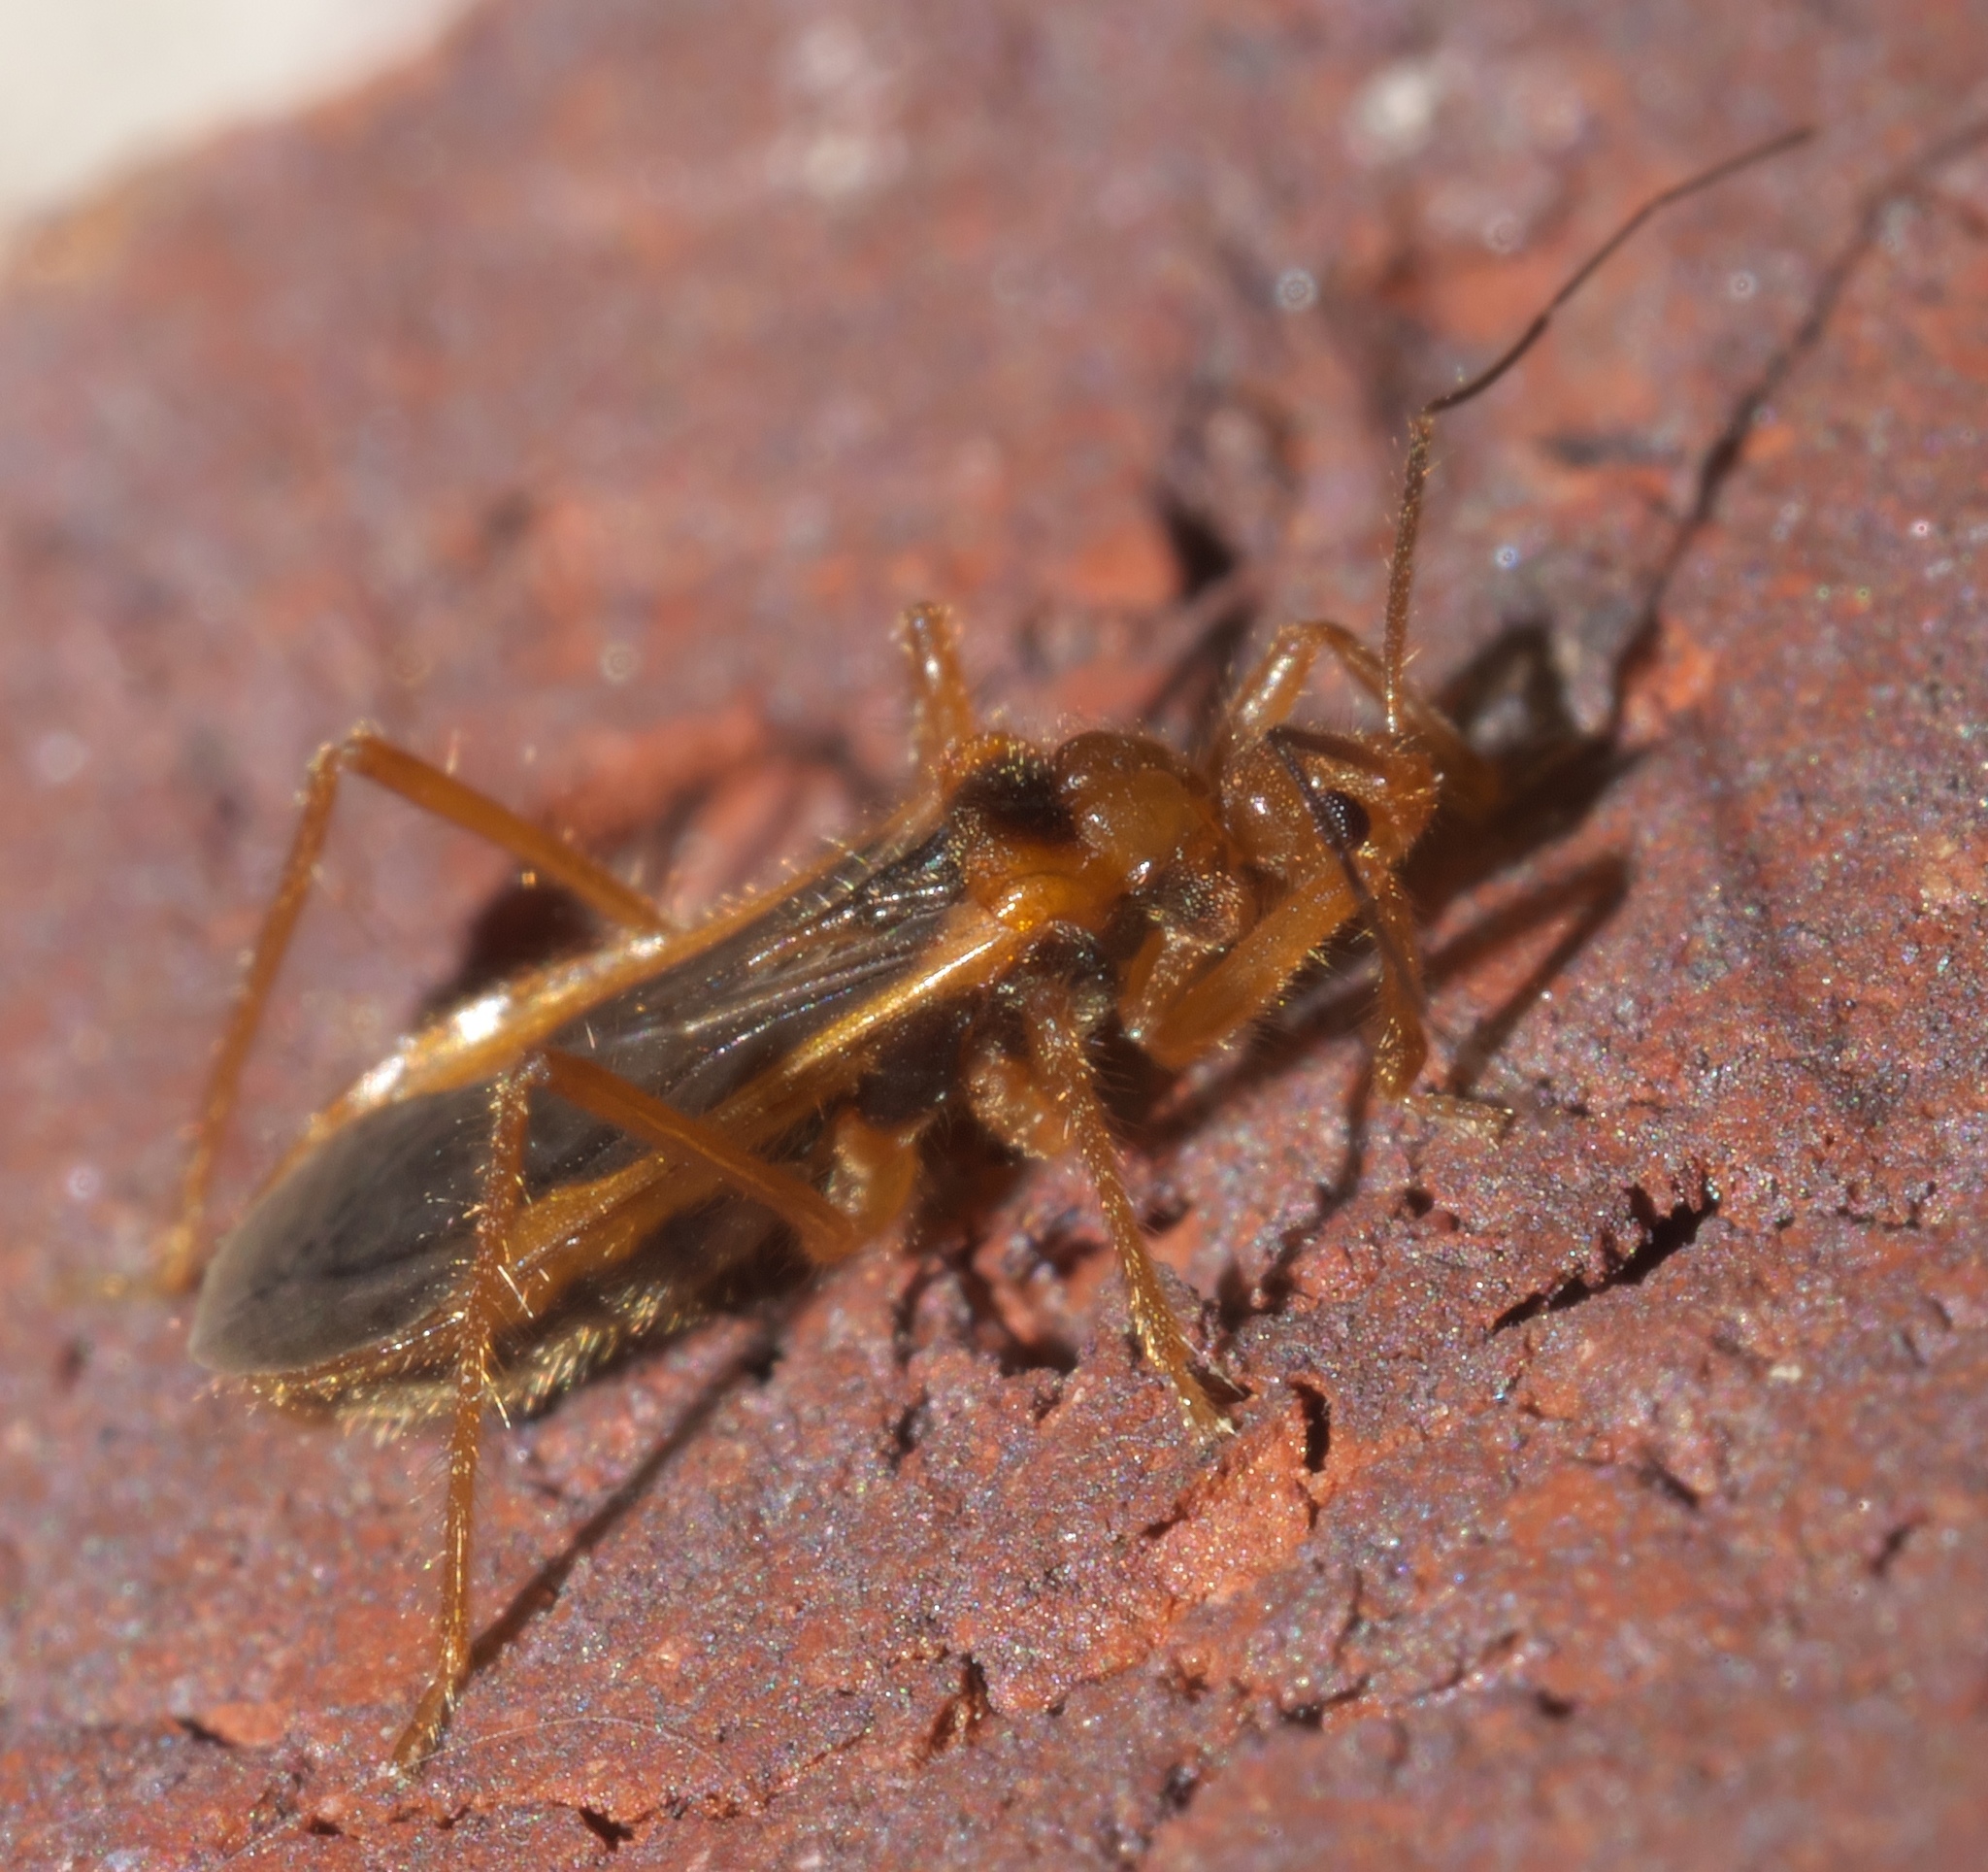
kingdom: Animalia
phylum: Arthropoda
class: Insecta
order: Hemiptera
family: Reduviidae
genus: Oncerotrachelus
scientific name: Oncerotrachelus acuminatus
